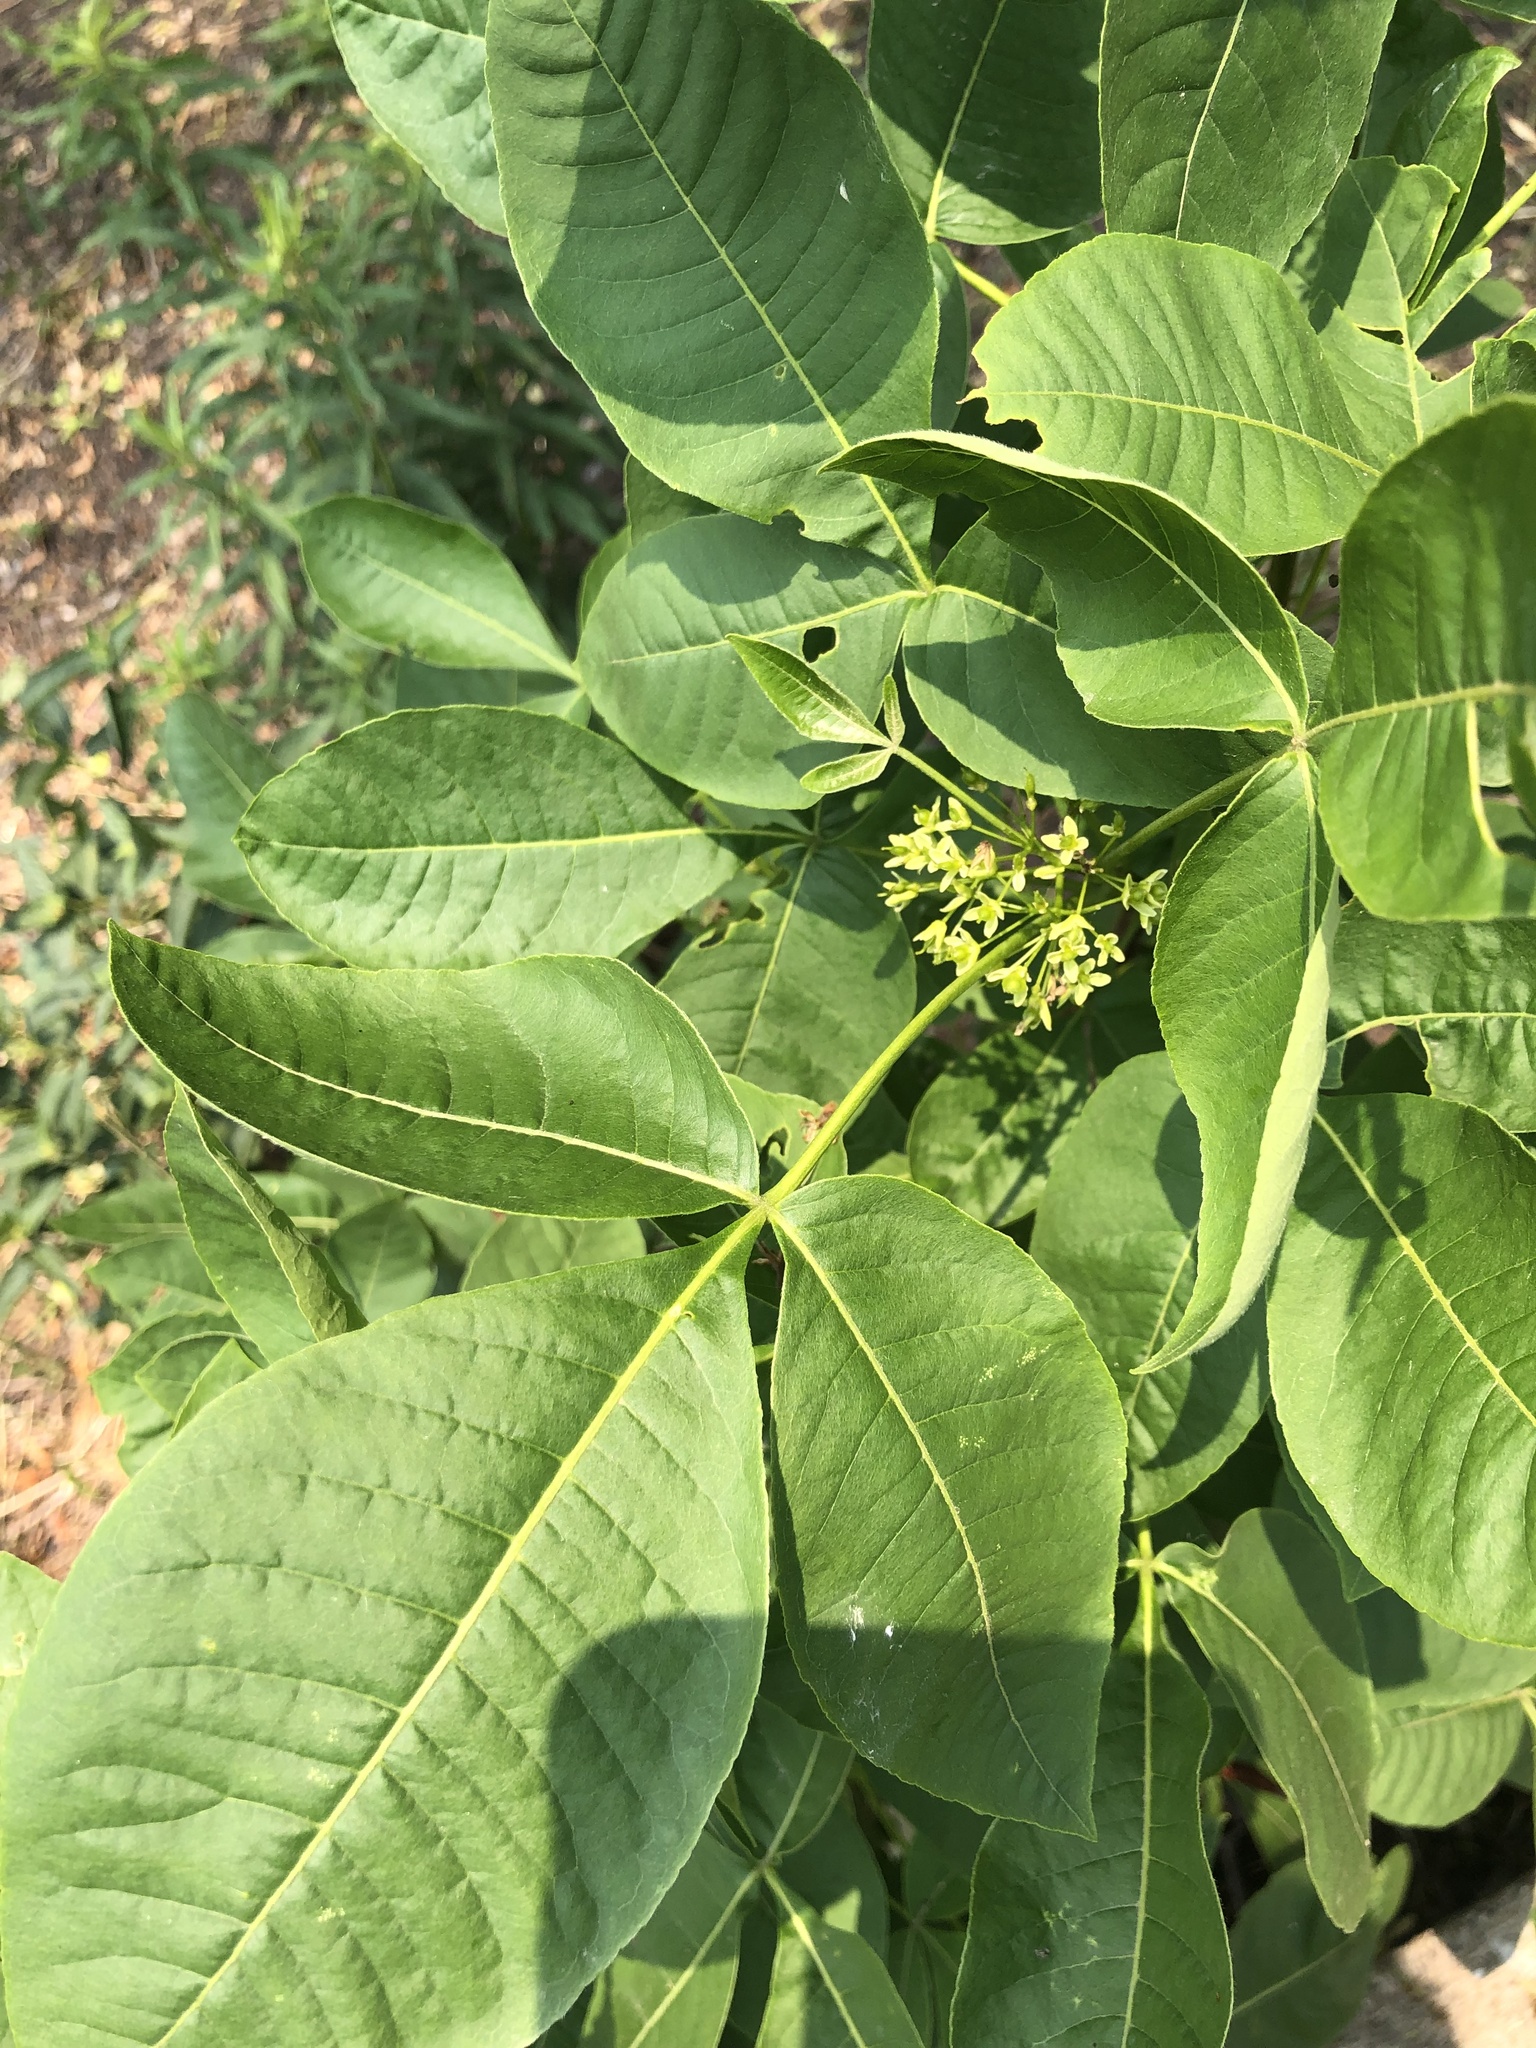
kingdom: Plantae
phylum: Tracheophyta
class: Magnoliopsida
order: Sapindales
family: Rutaceae
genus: Ptelea
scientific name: Ptelea trifoliata
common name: Common hop-tree
